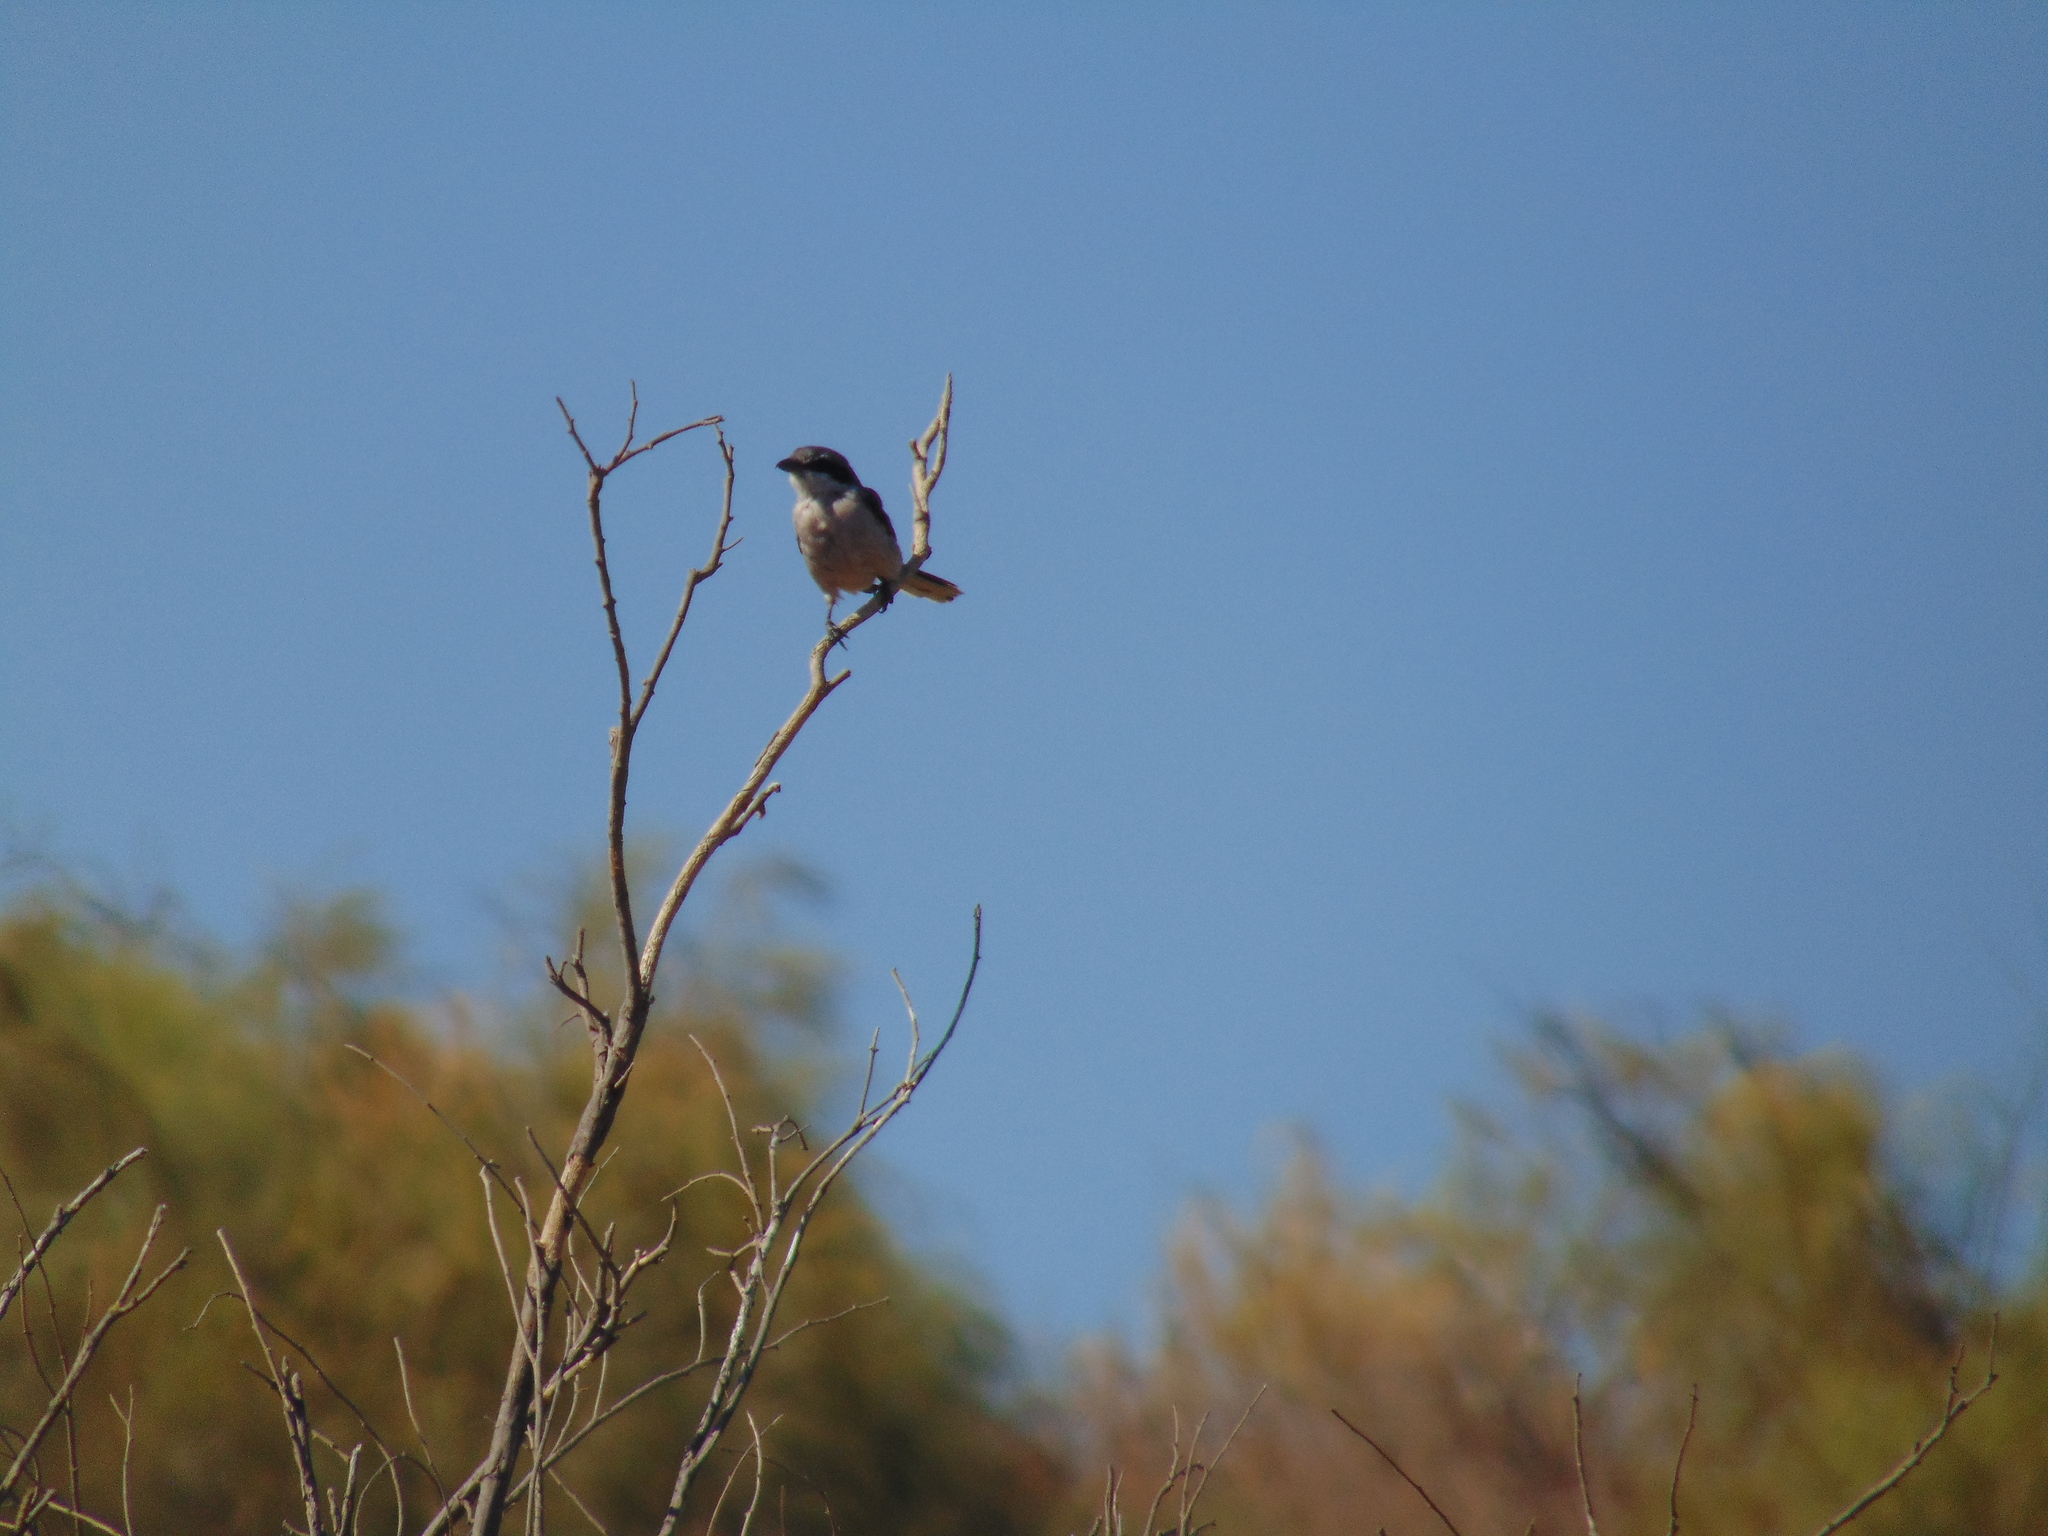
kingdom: Animalia
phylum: Chordata
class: Aves
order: Passeriformes
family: Laniidae
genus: Lanius
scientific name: Lanius meridionalis
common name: Iberian grey shrike
